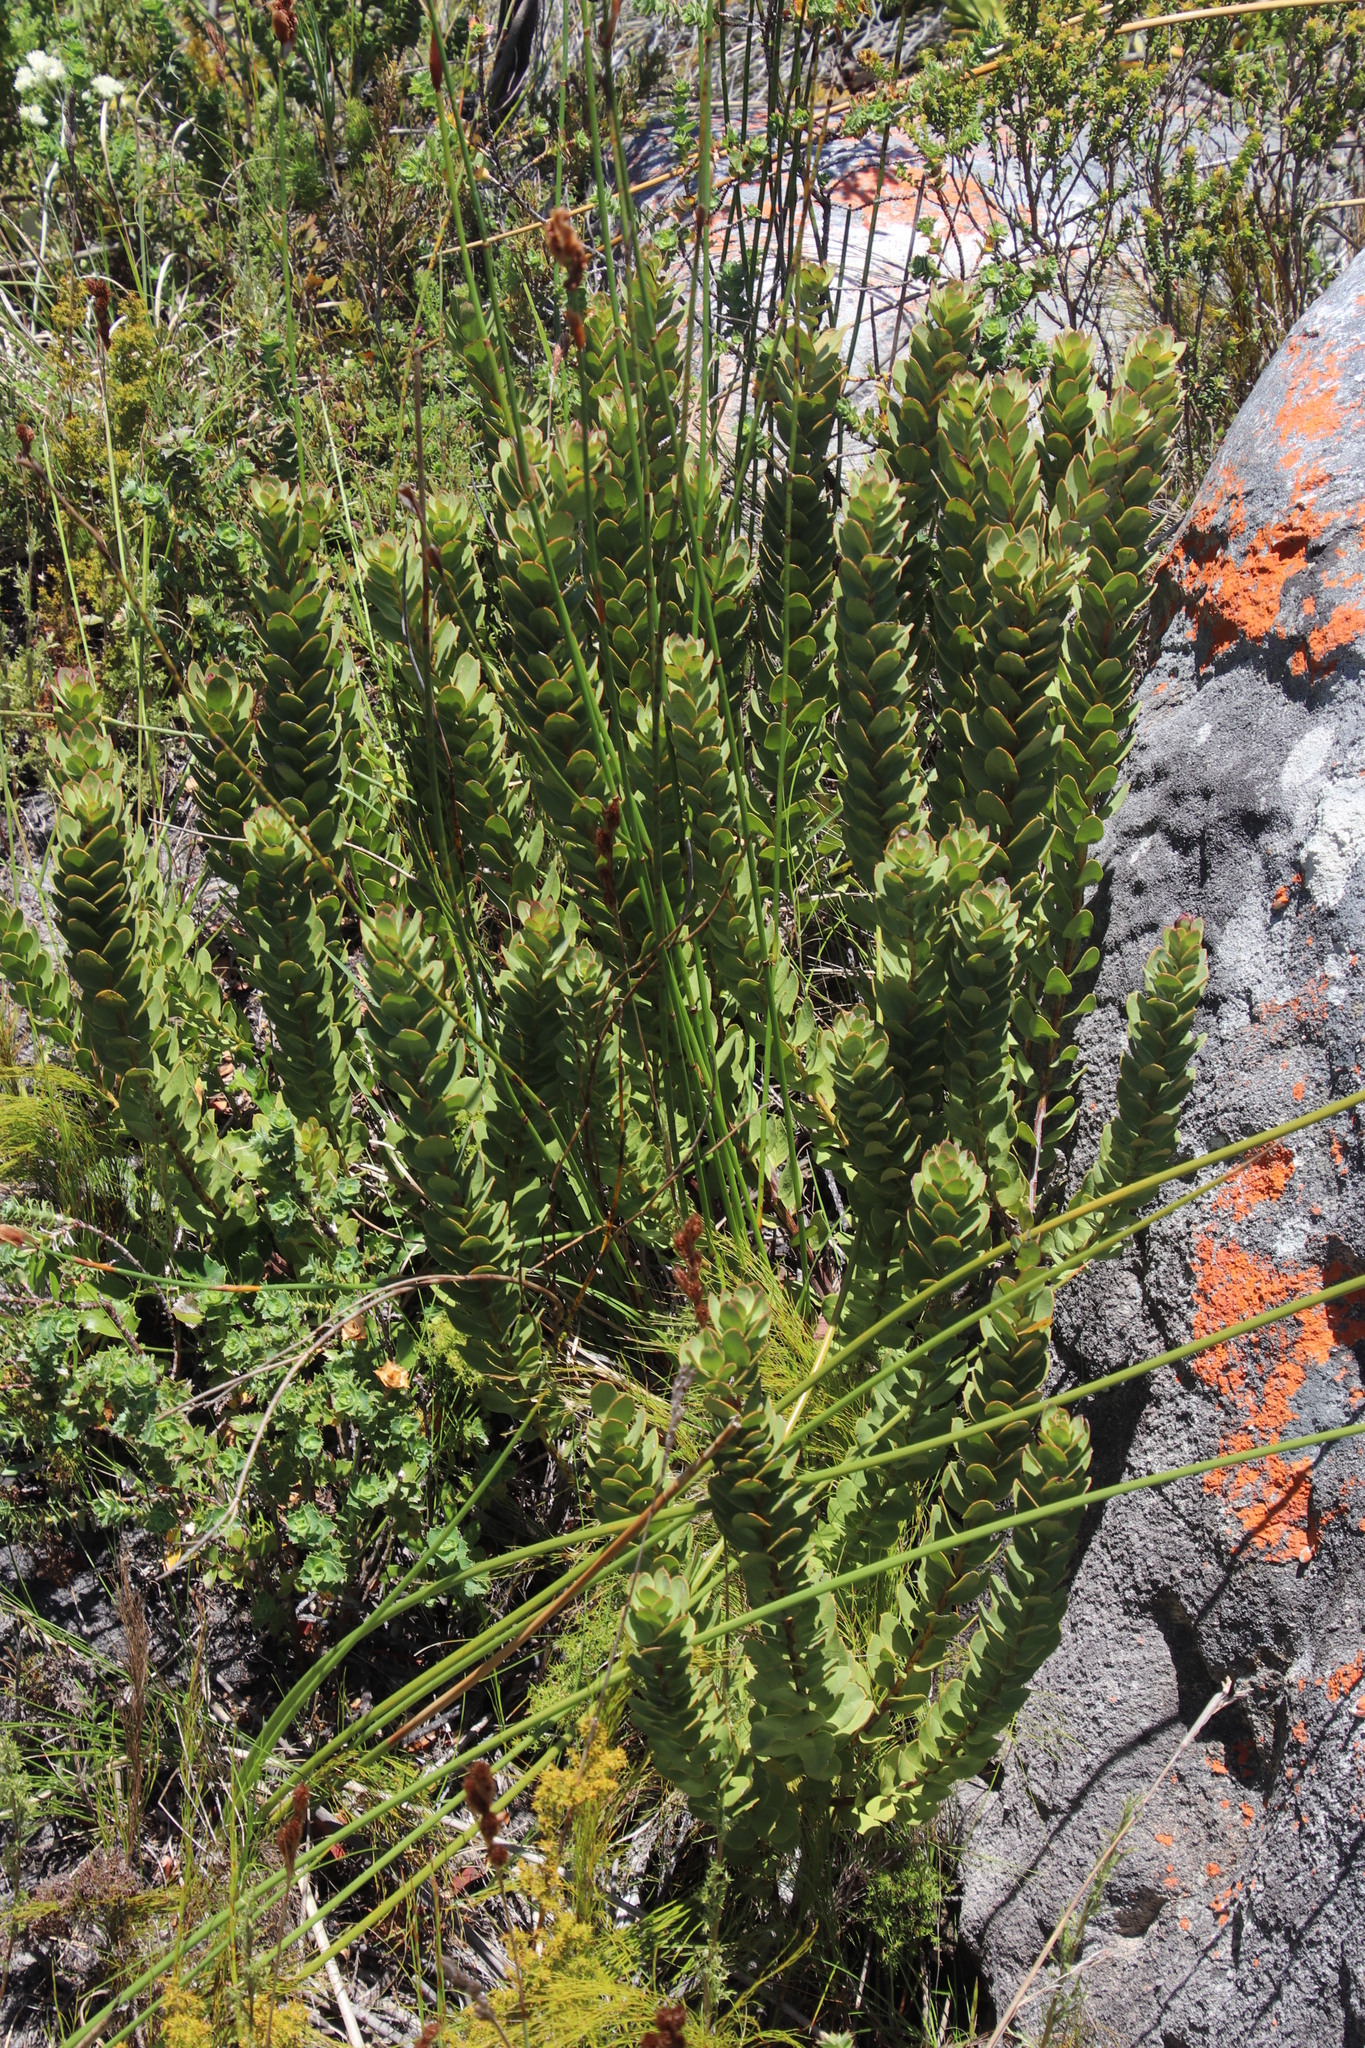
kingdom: Plantae
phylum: Tracheophyta
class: Magnoliopsida
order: Santalales
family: Santalaceae
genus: Osyris
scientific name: Osyris speciosa
